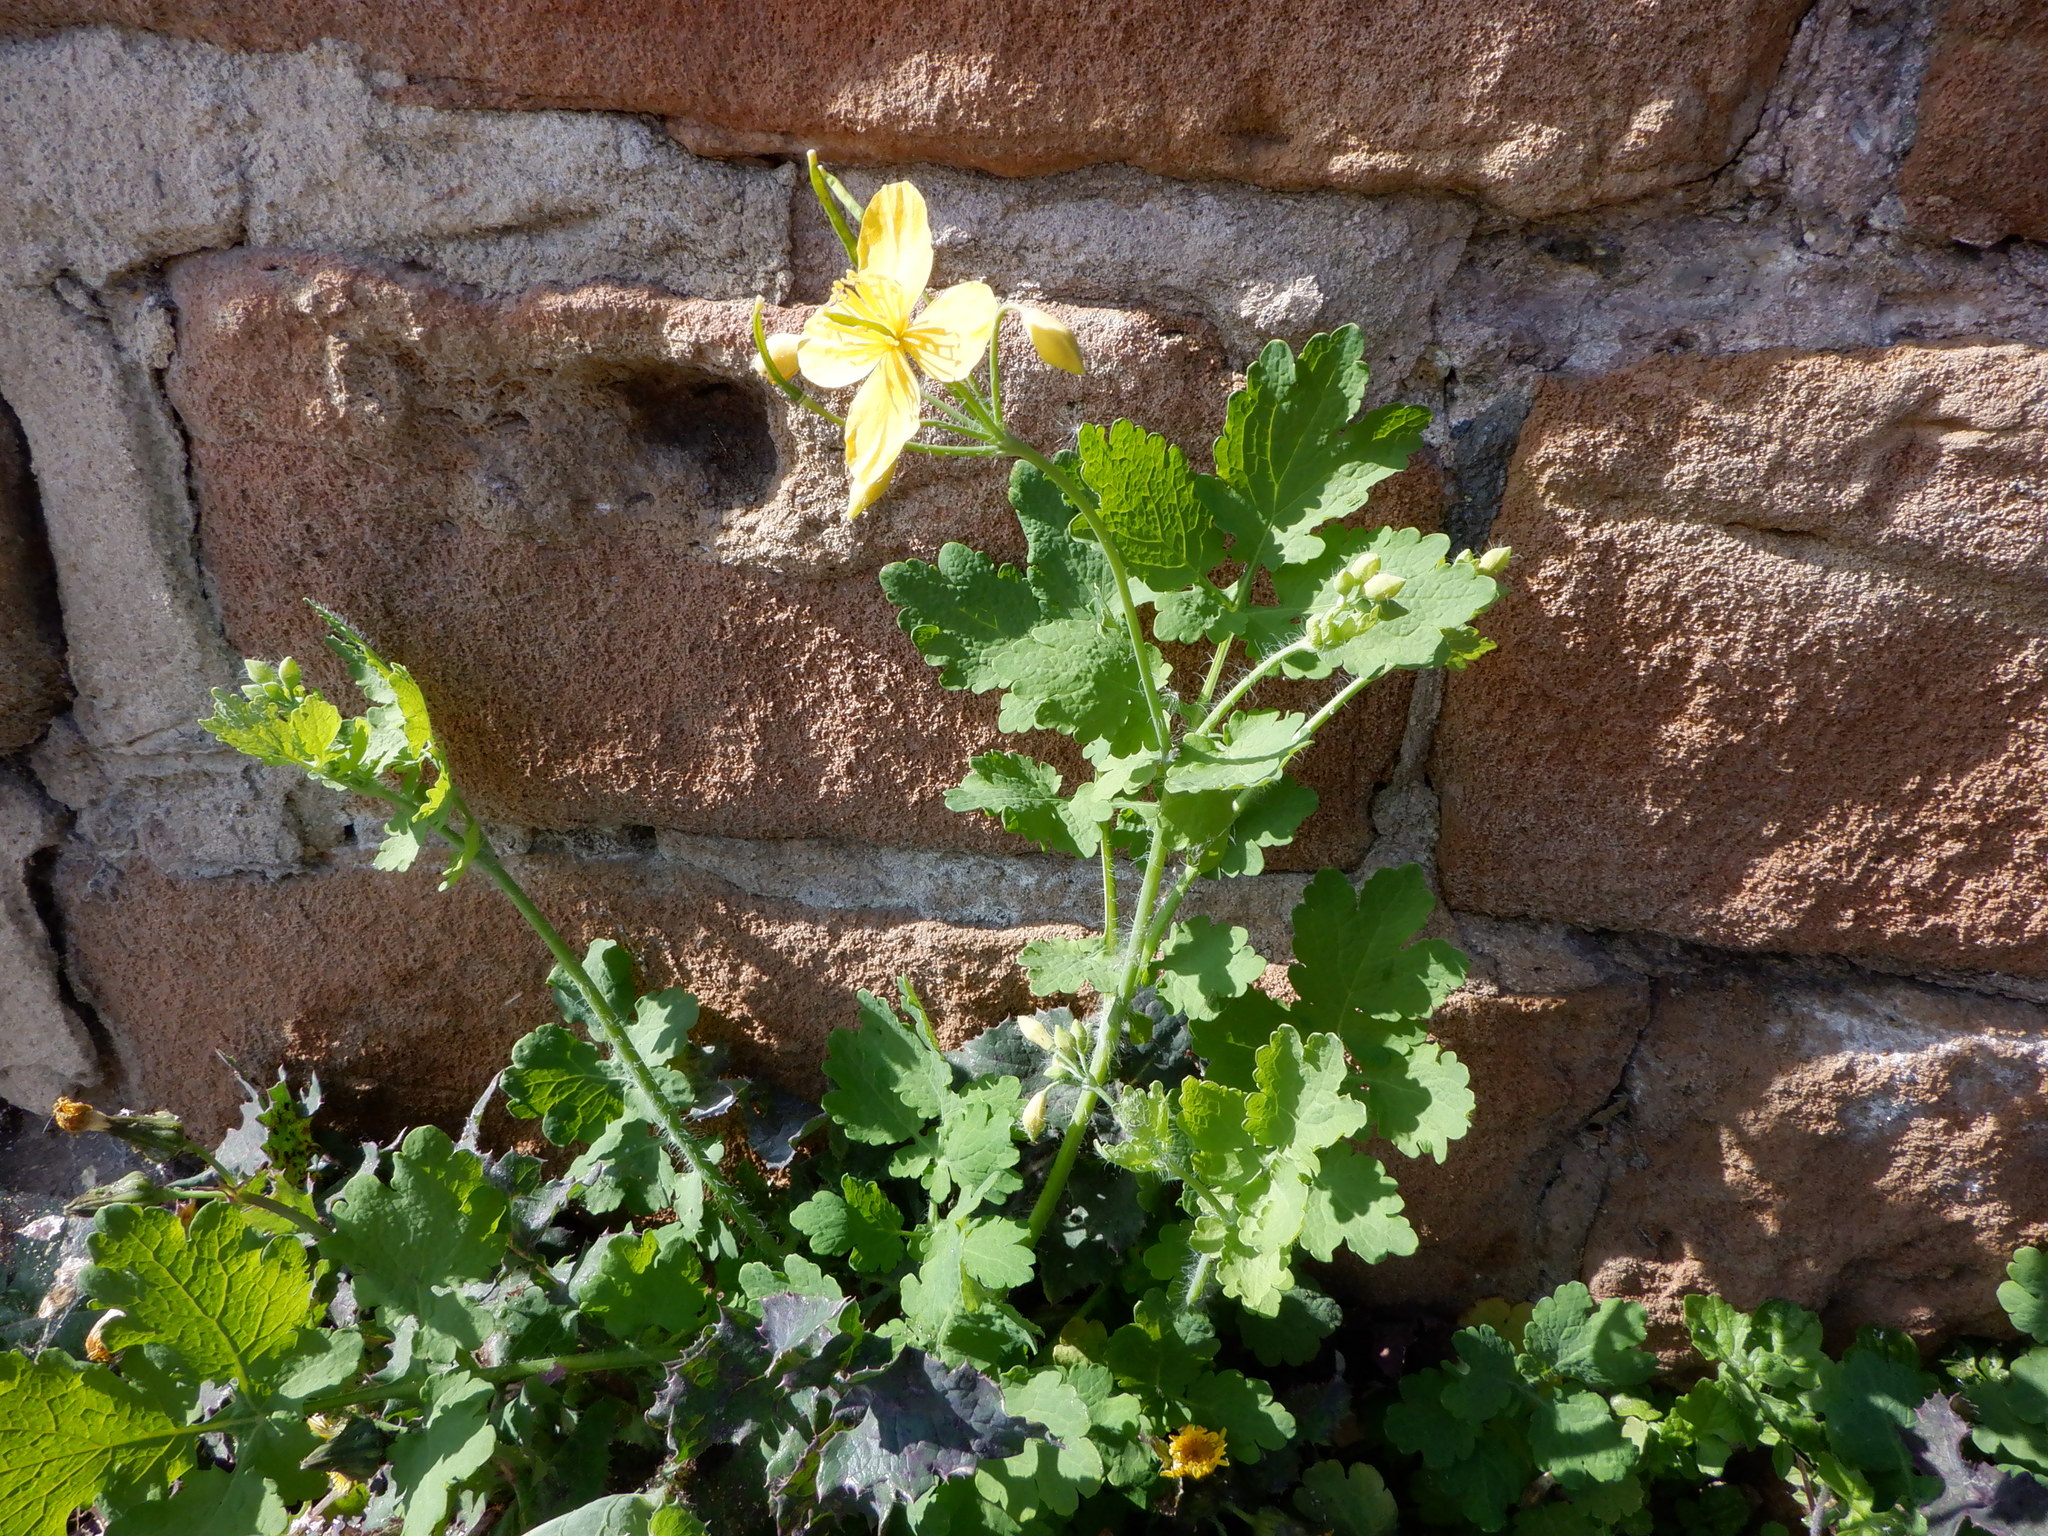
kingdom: Plantae
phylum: Tracheophyta
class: Magnoliopsida
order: Ranunculales
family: Papaveraceae
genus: Chelidonium
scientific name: Chelidonium majus
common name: Greater celandine
